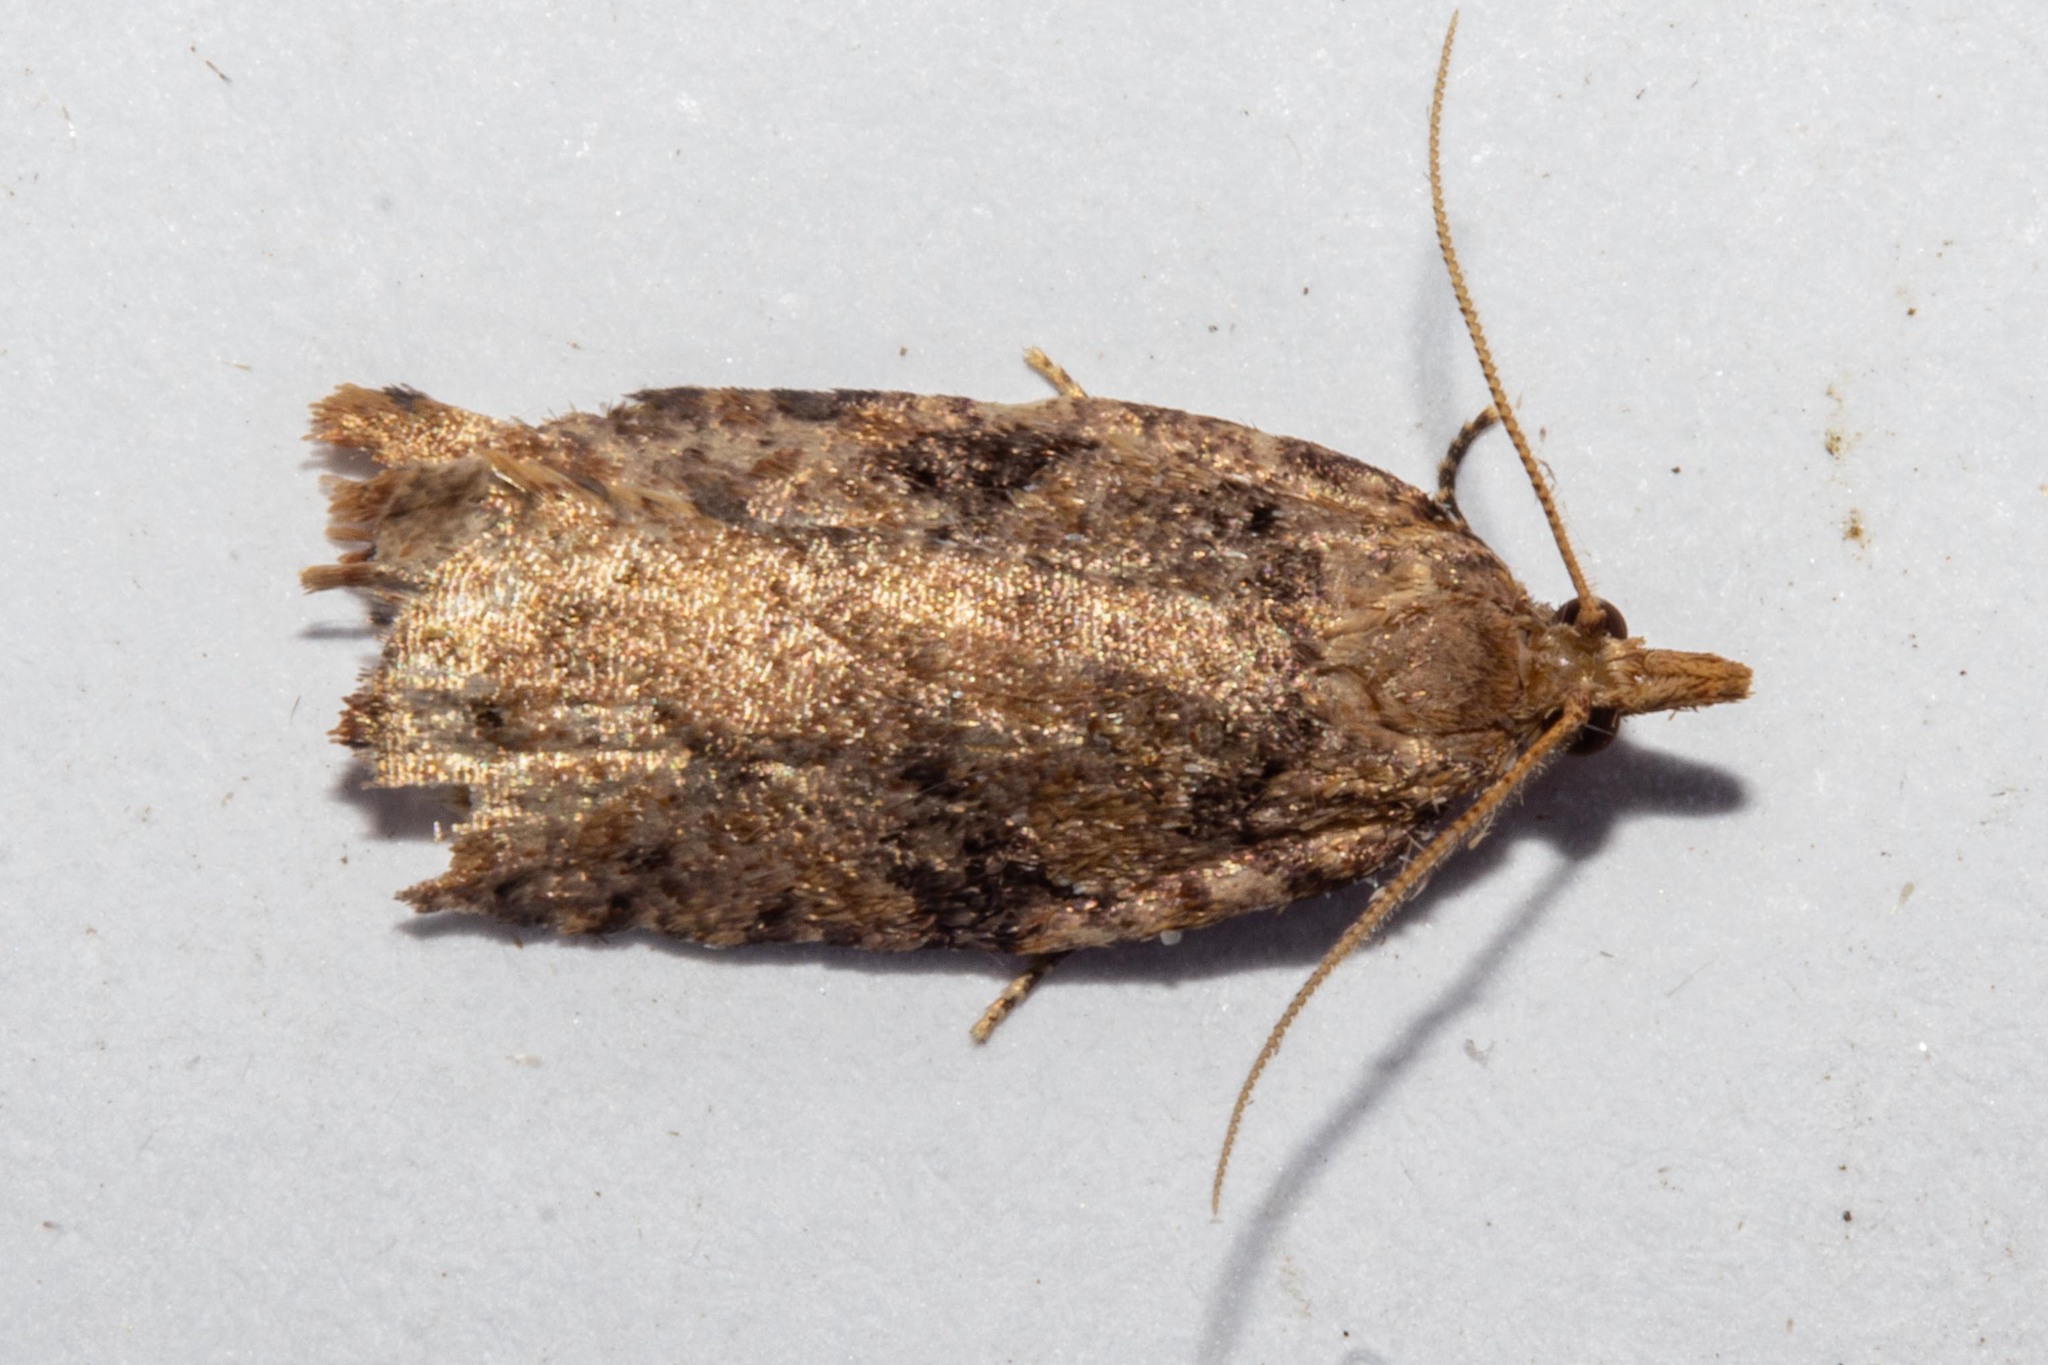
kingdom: Animalia
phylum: Arthropoda
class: Insecta
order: Lepidoptera
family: Tortricidae
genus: Ctenopseustis
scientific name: Ctenopseustis obliquana
